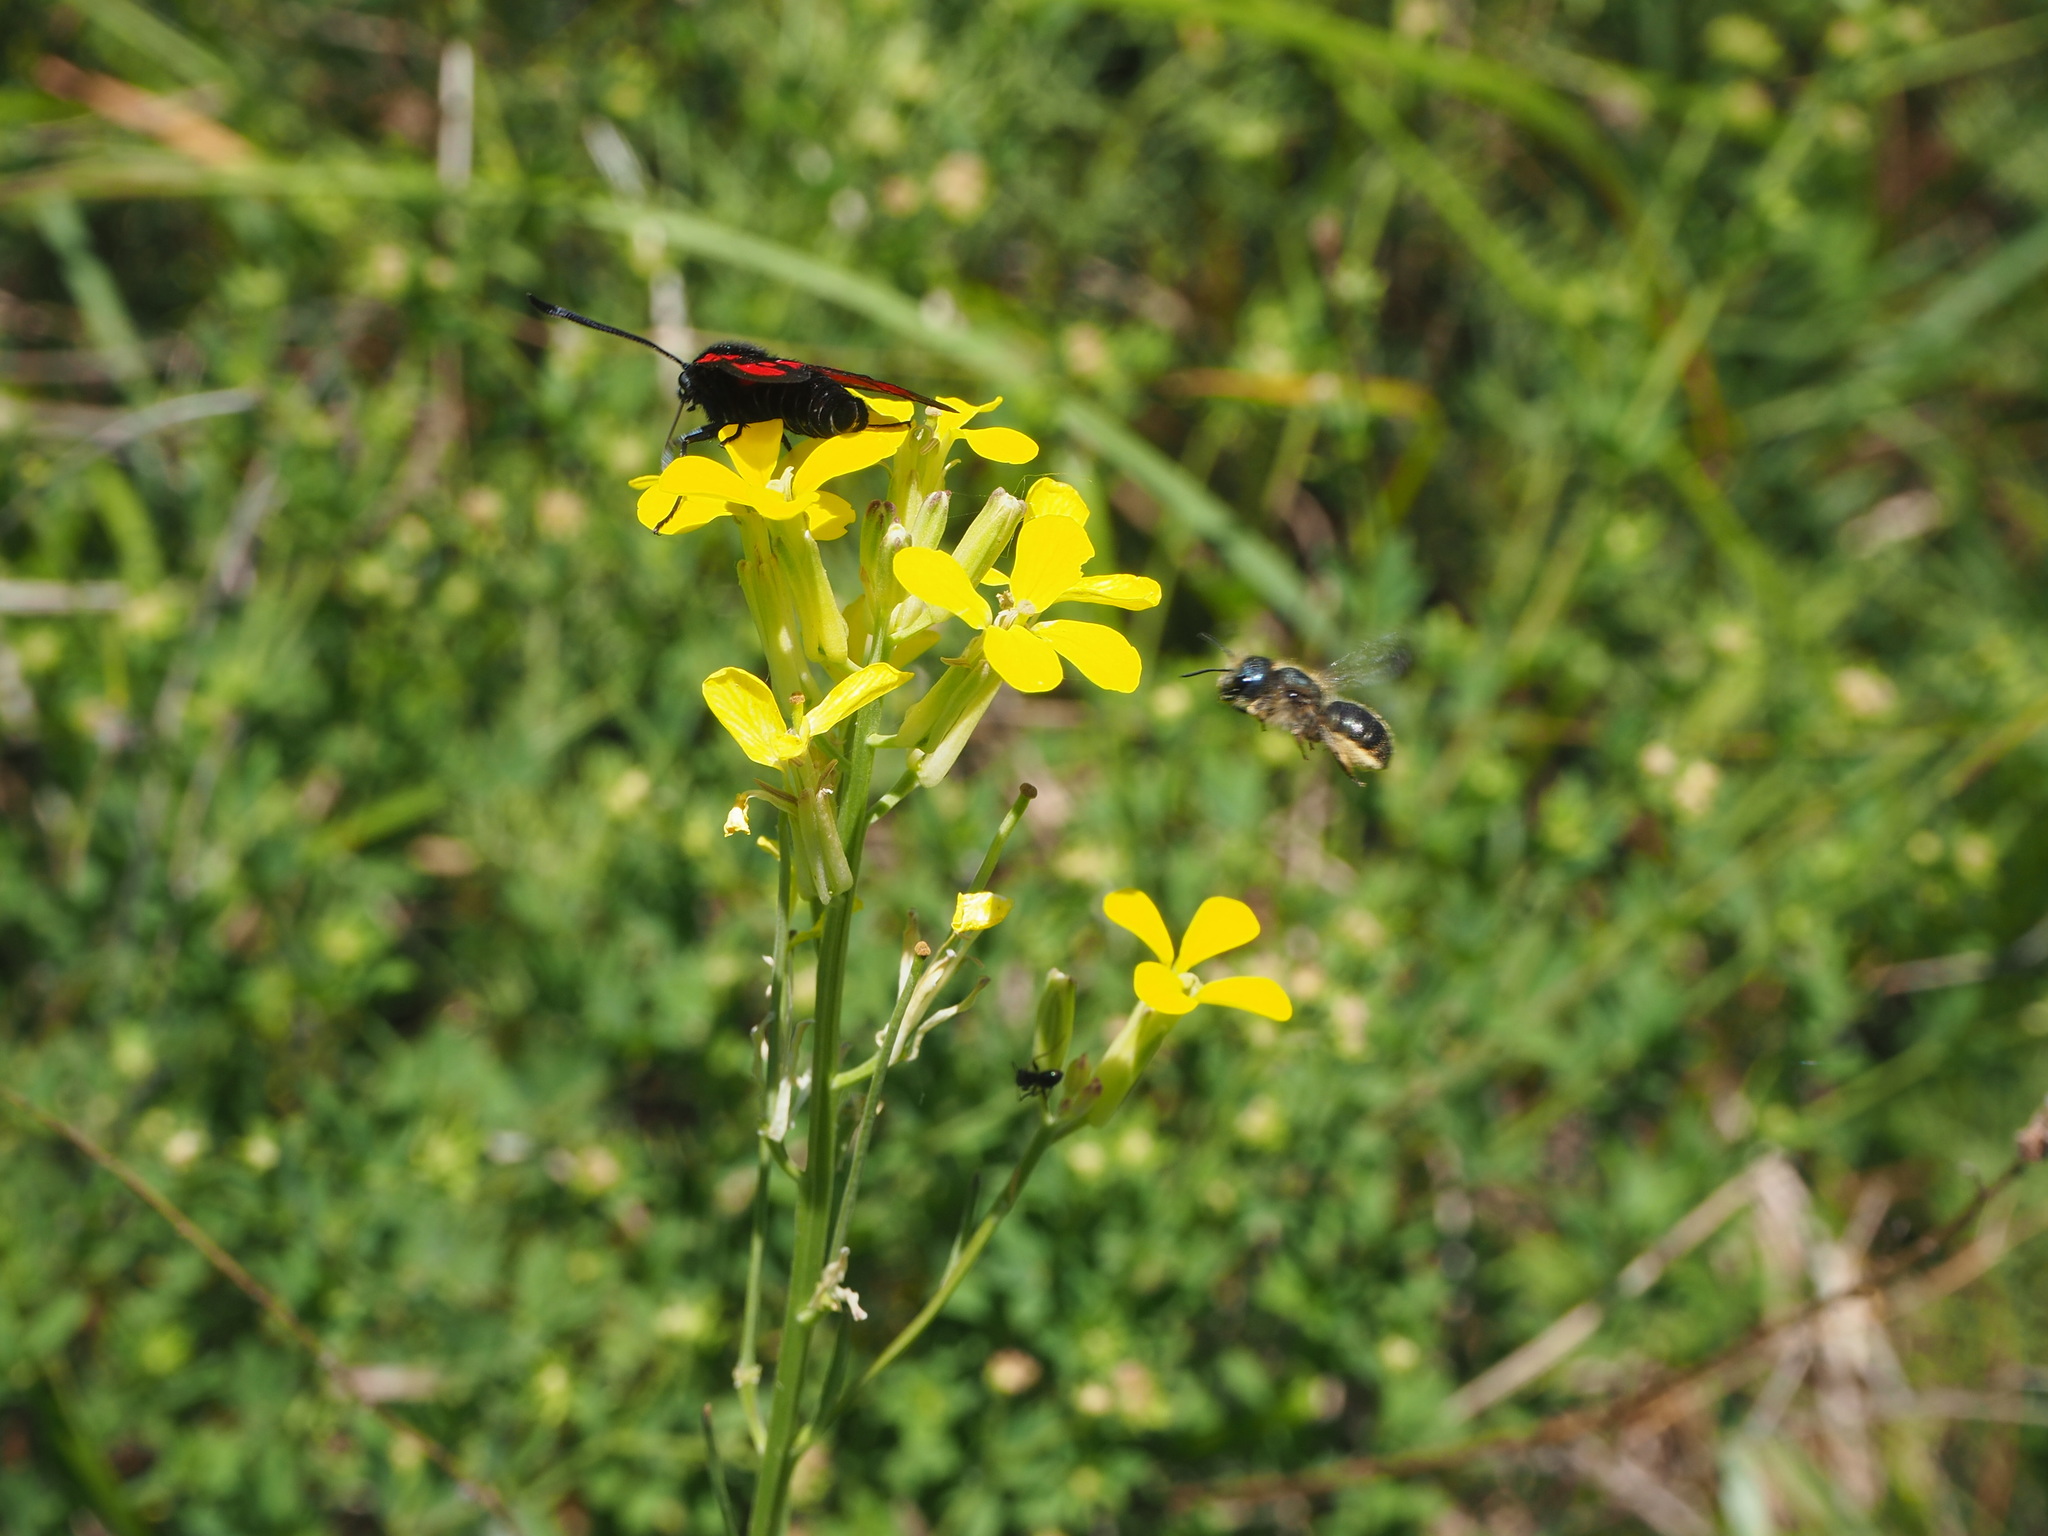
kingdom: Animalia
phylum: Arthropoda
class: Insecta
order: Lepidoptera
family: Zygaenidae
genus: Zygaena
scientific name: Zygaena loti
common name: Slender scotch burnet
